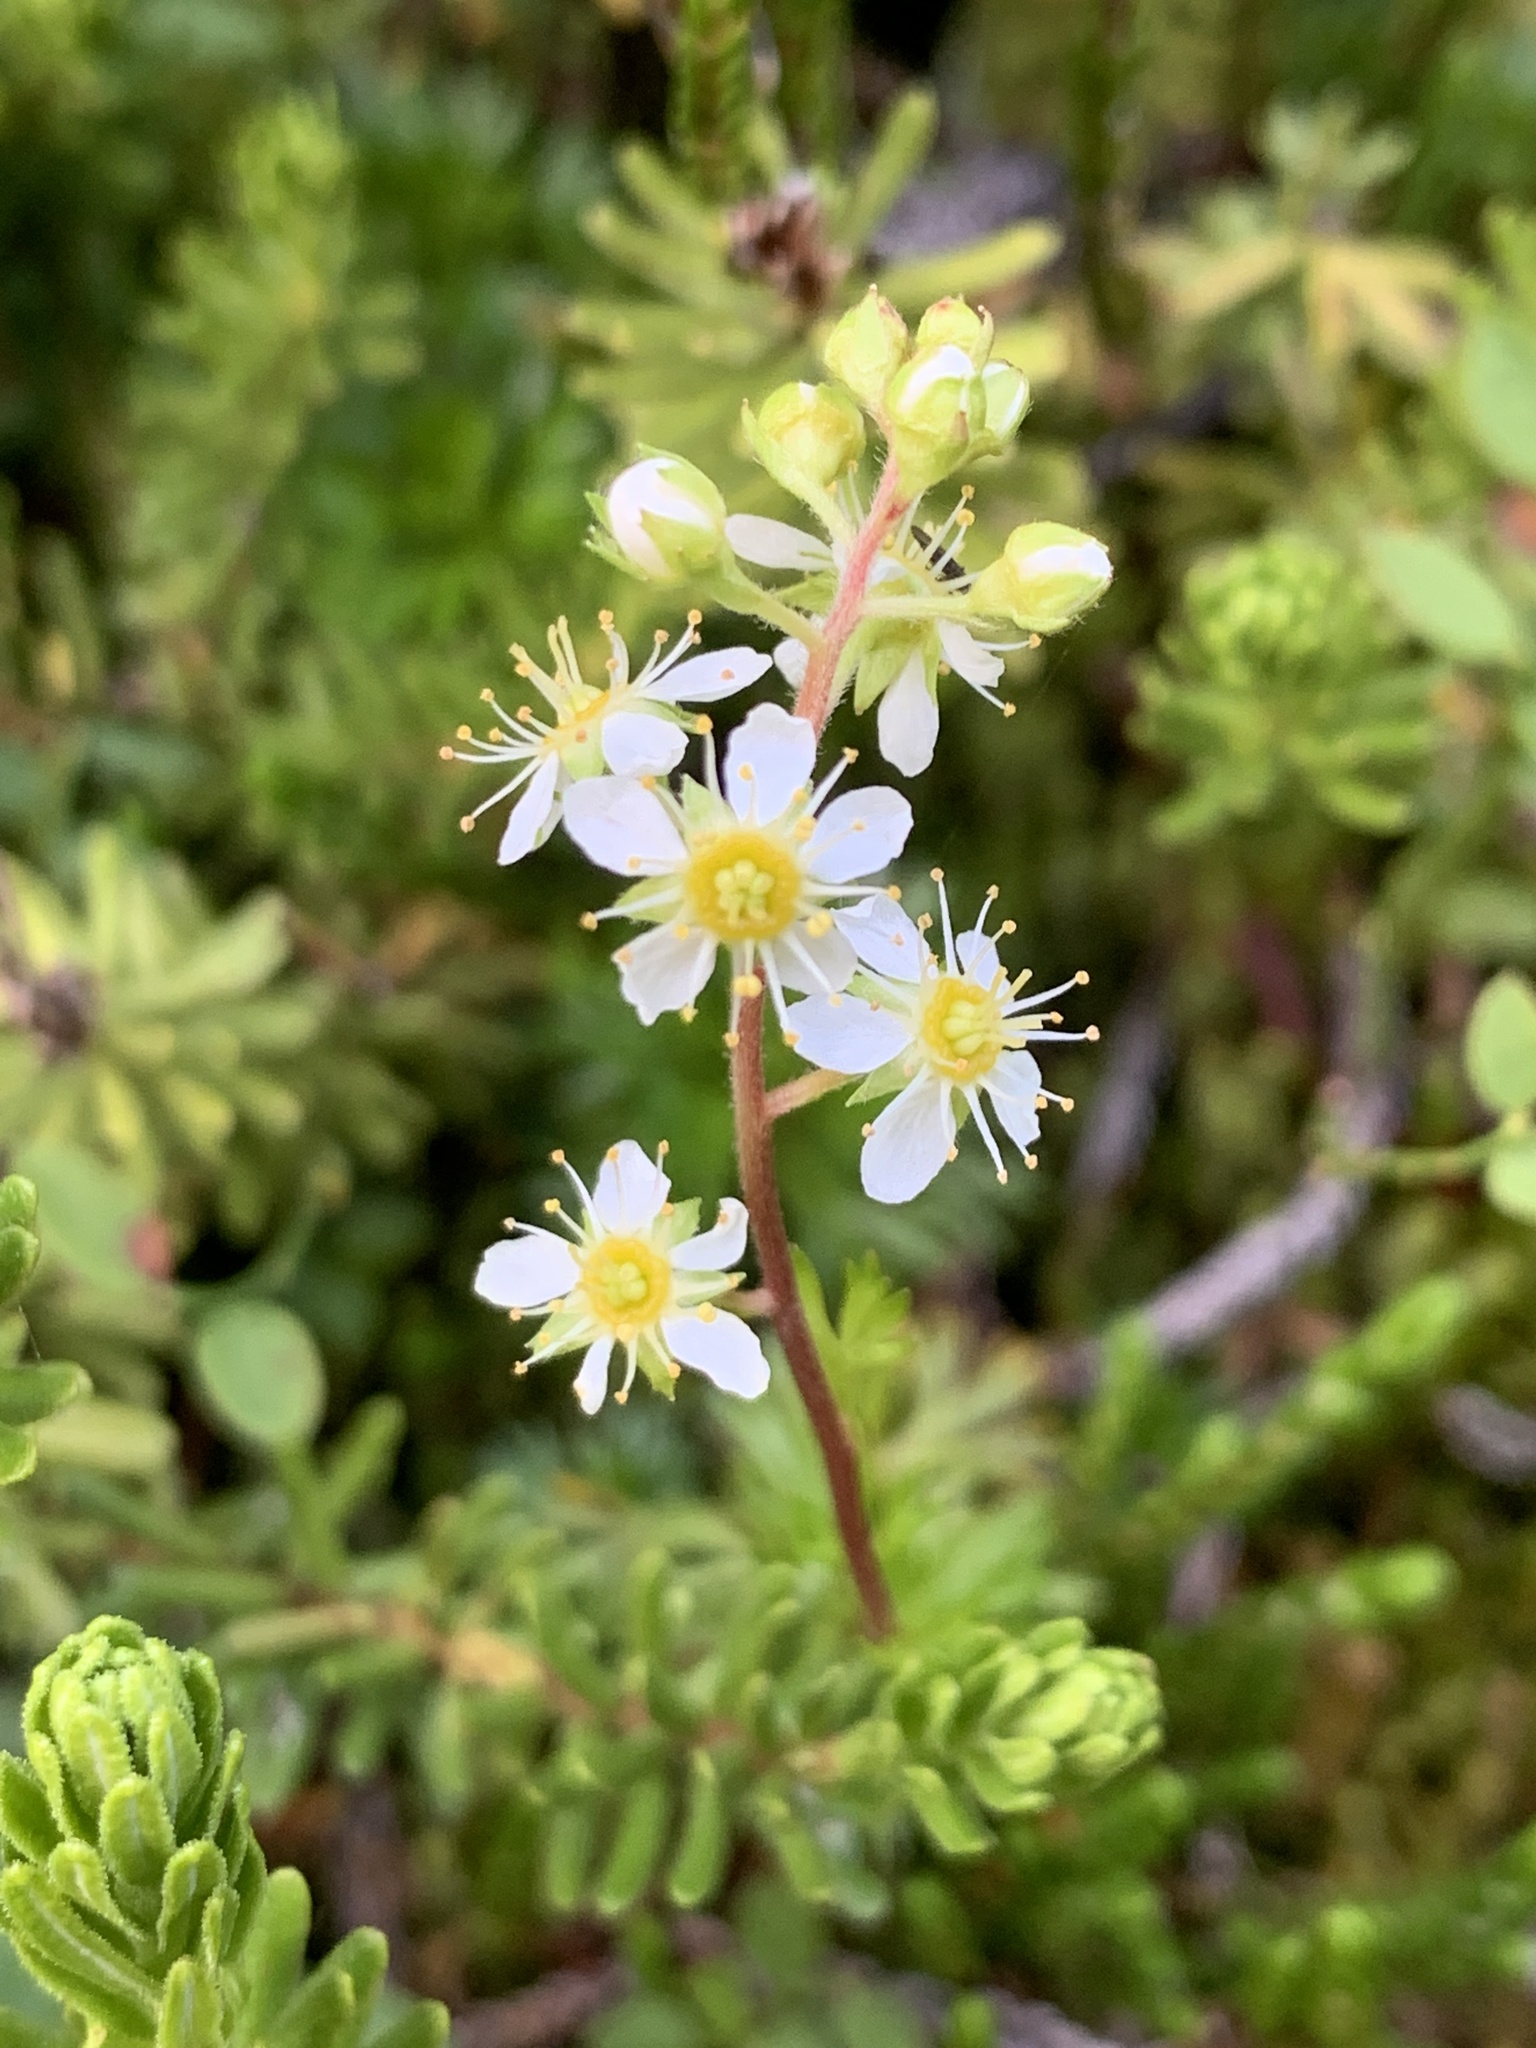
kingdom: Plantae
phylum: Tracheophyta
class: Magnoliopsida
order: Rosales
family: Rosaceae
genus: Luetkea
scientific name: Luetkea pectinata
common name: Partridgefoot
